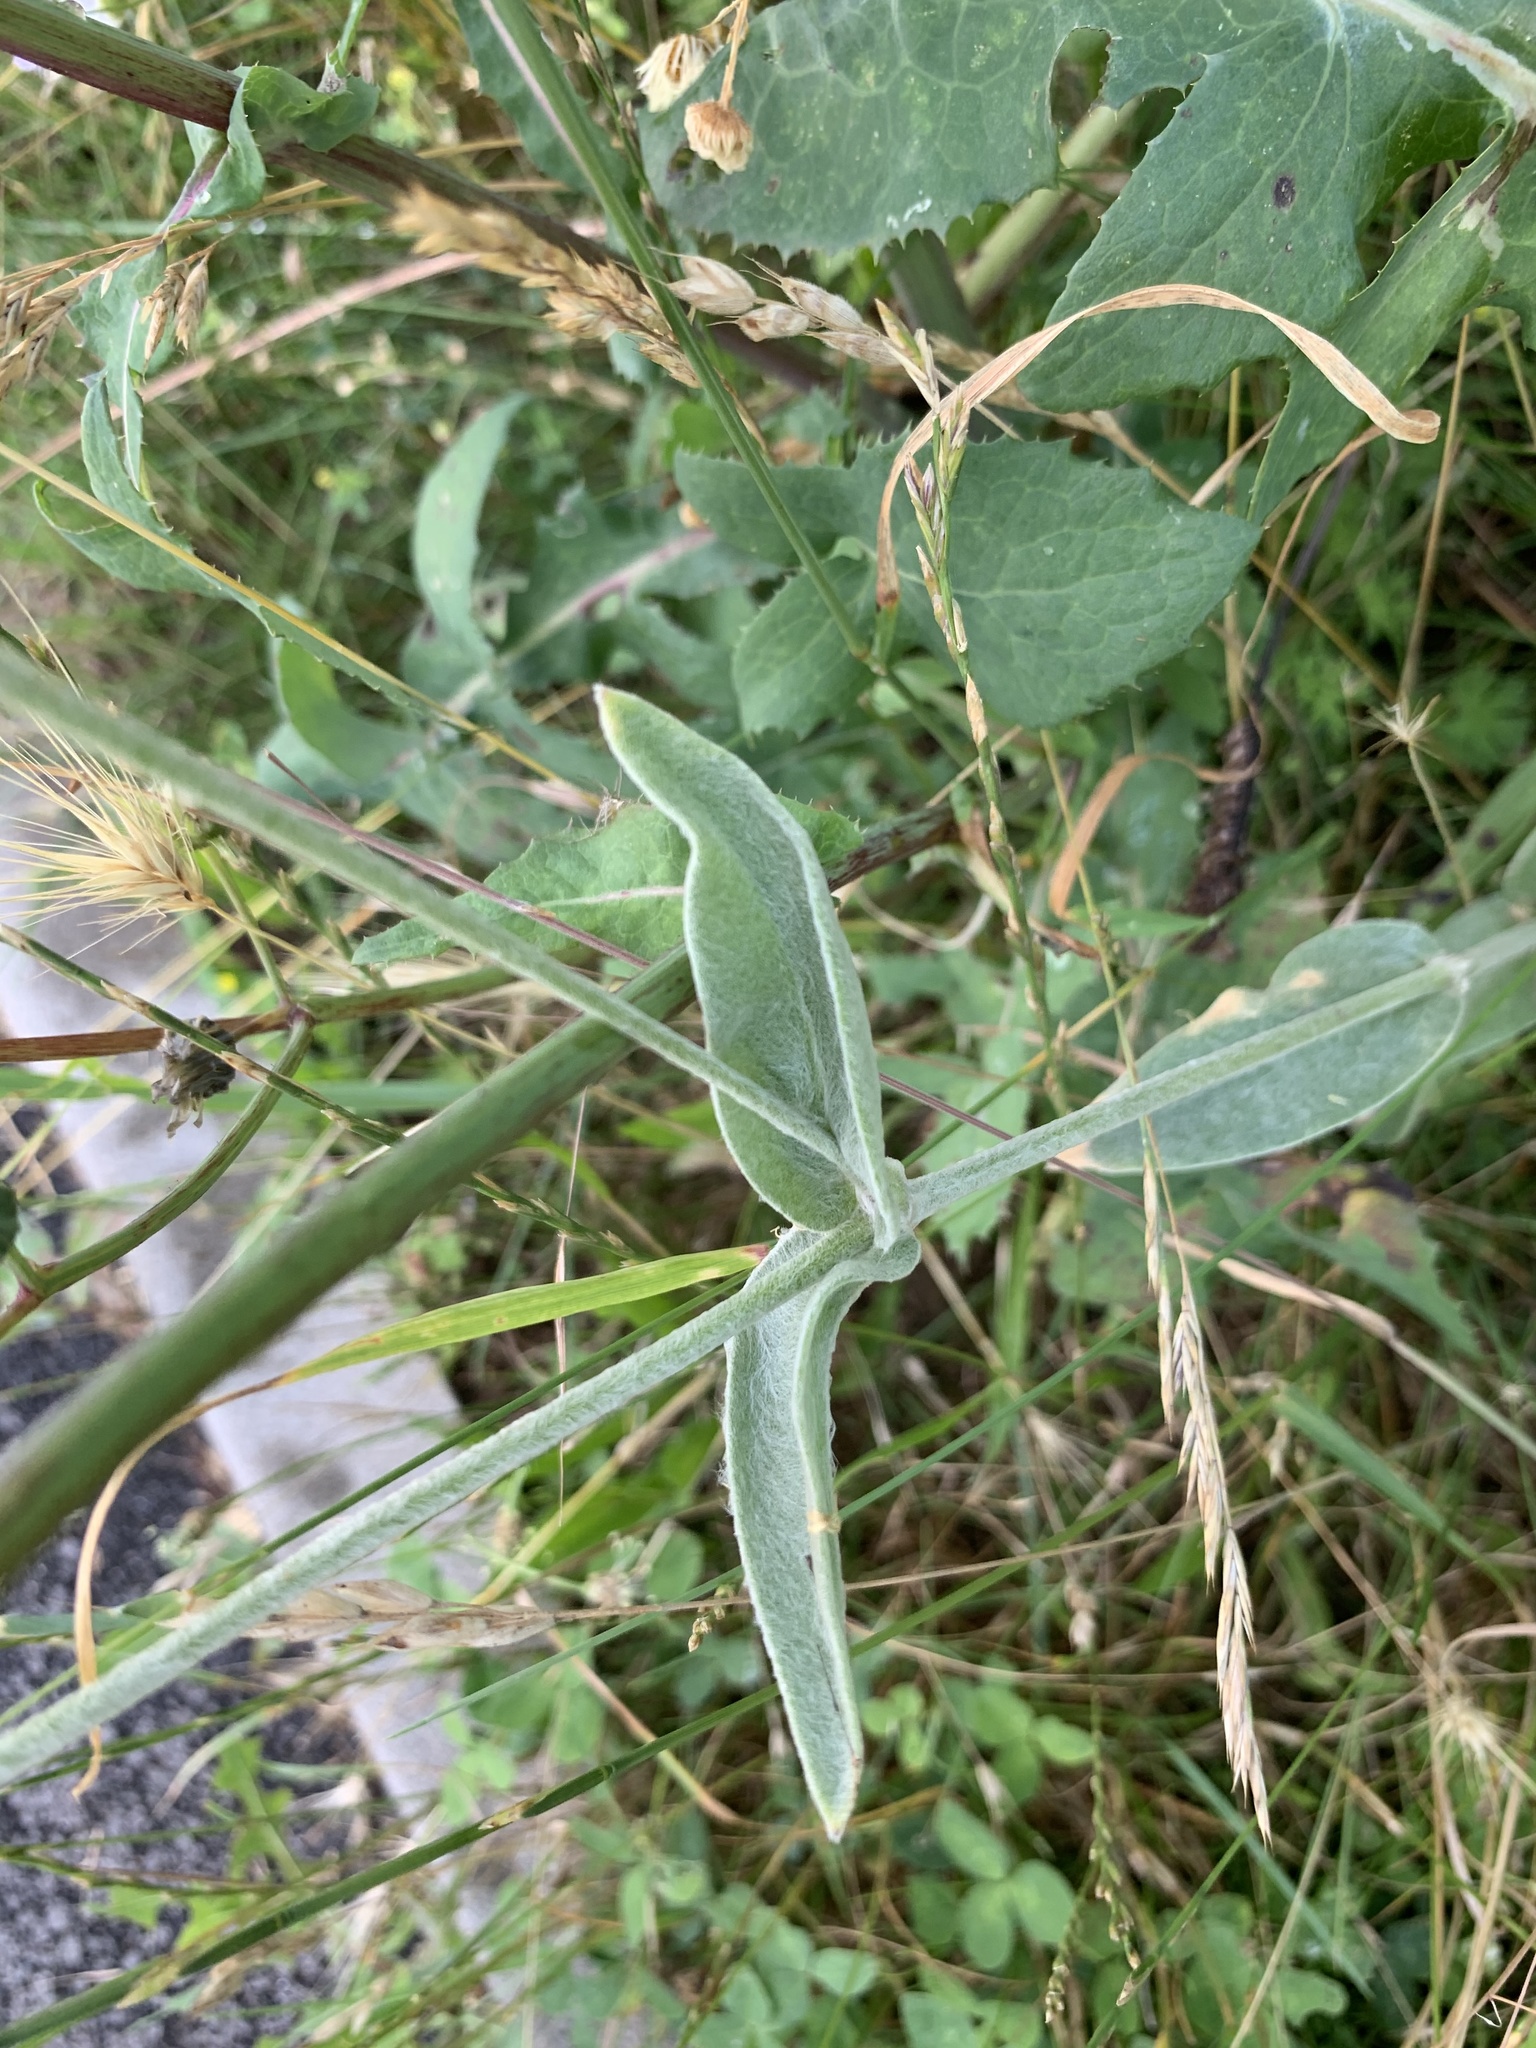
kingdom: Plantae
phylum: Tracheophyta
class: Magnoliopsida
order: Caryophyllales
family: Caryophyllaceae
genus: Silene
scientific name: Silene coronaria
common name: Rose campion
